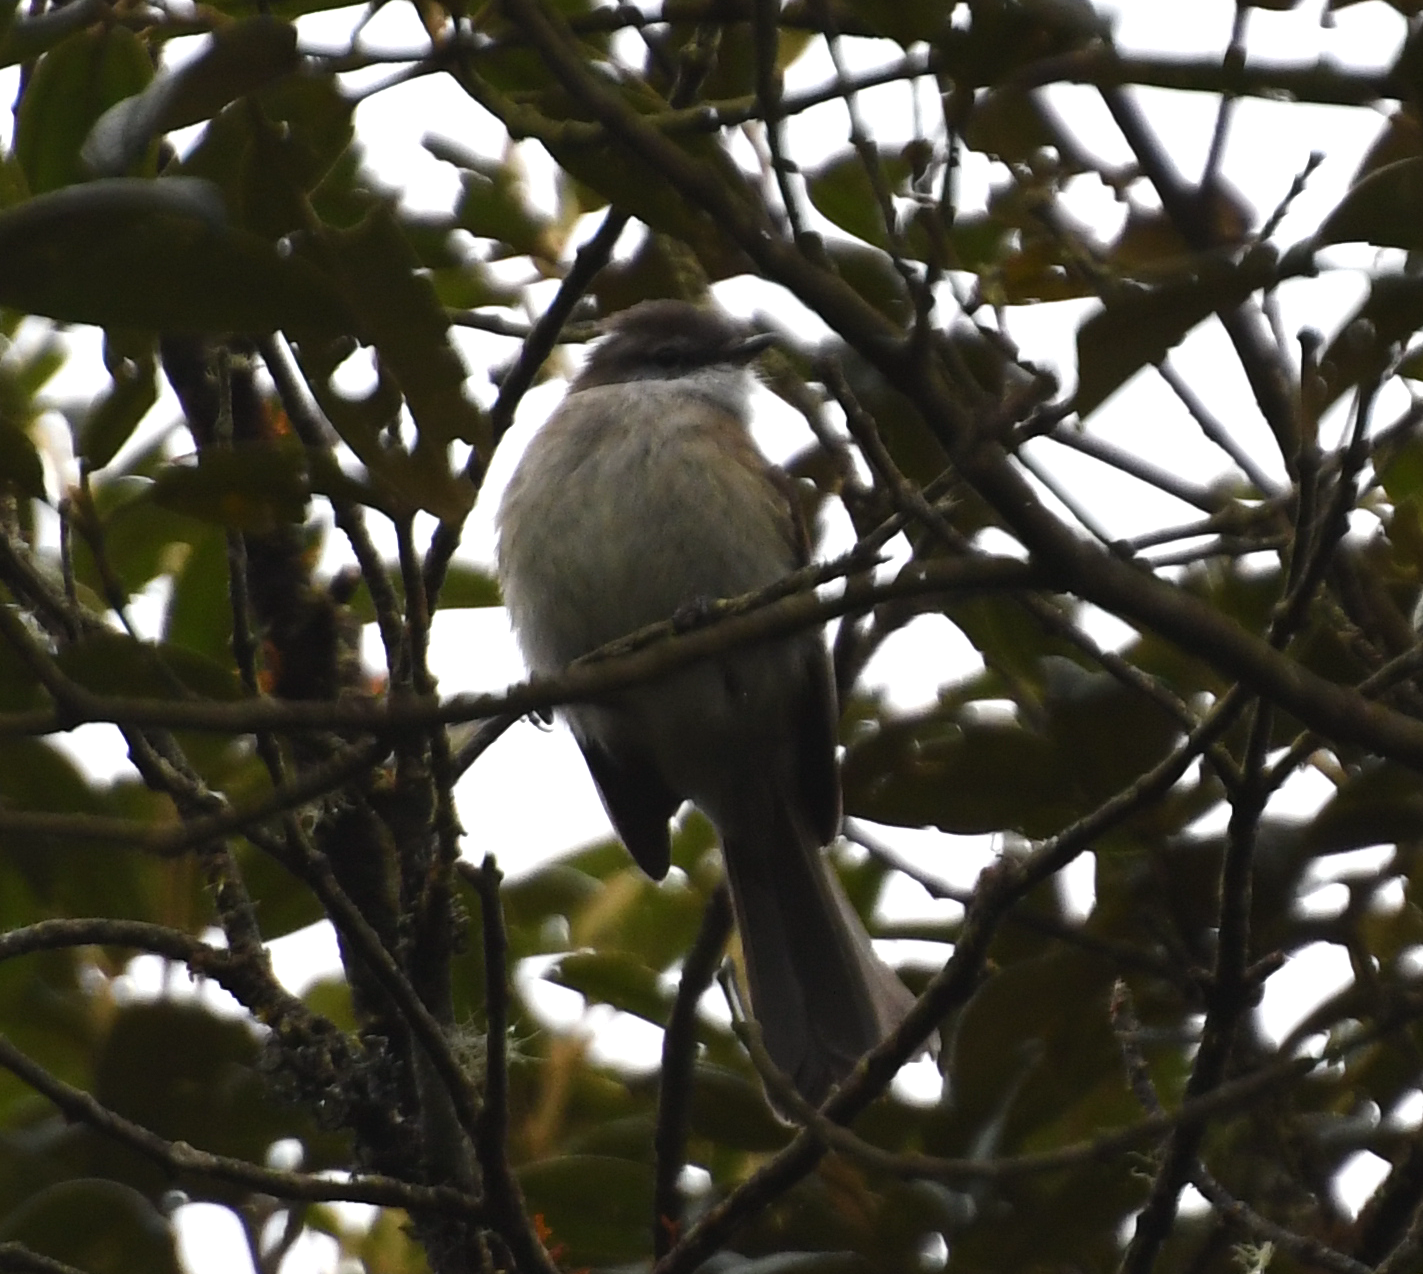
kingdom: Animalia
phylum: Chordata
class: Aves
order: Passeriformes
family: Tyrannidae
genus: Mecocerculus
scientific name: Mecocerculus leucophrys
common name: White-throated tyrannulet
